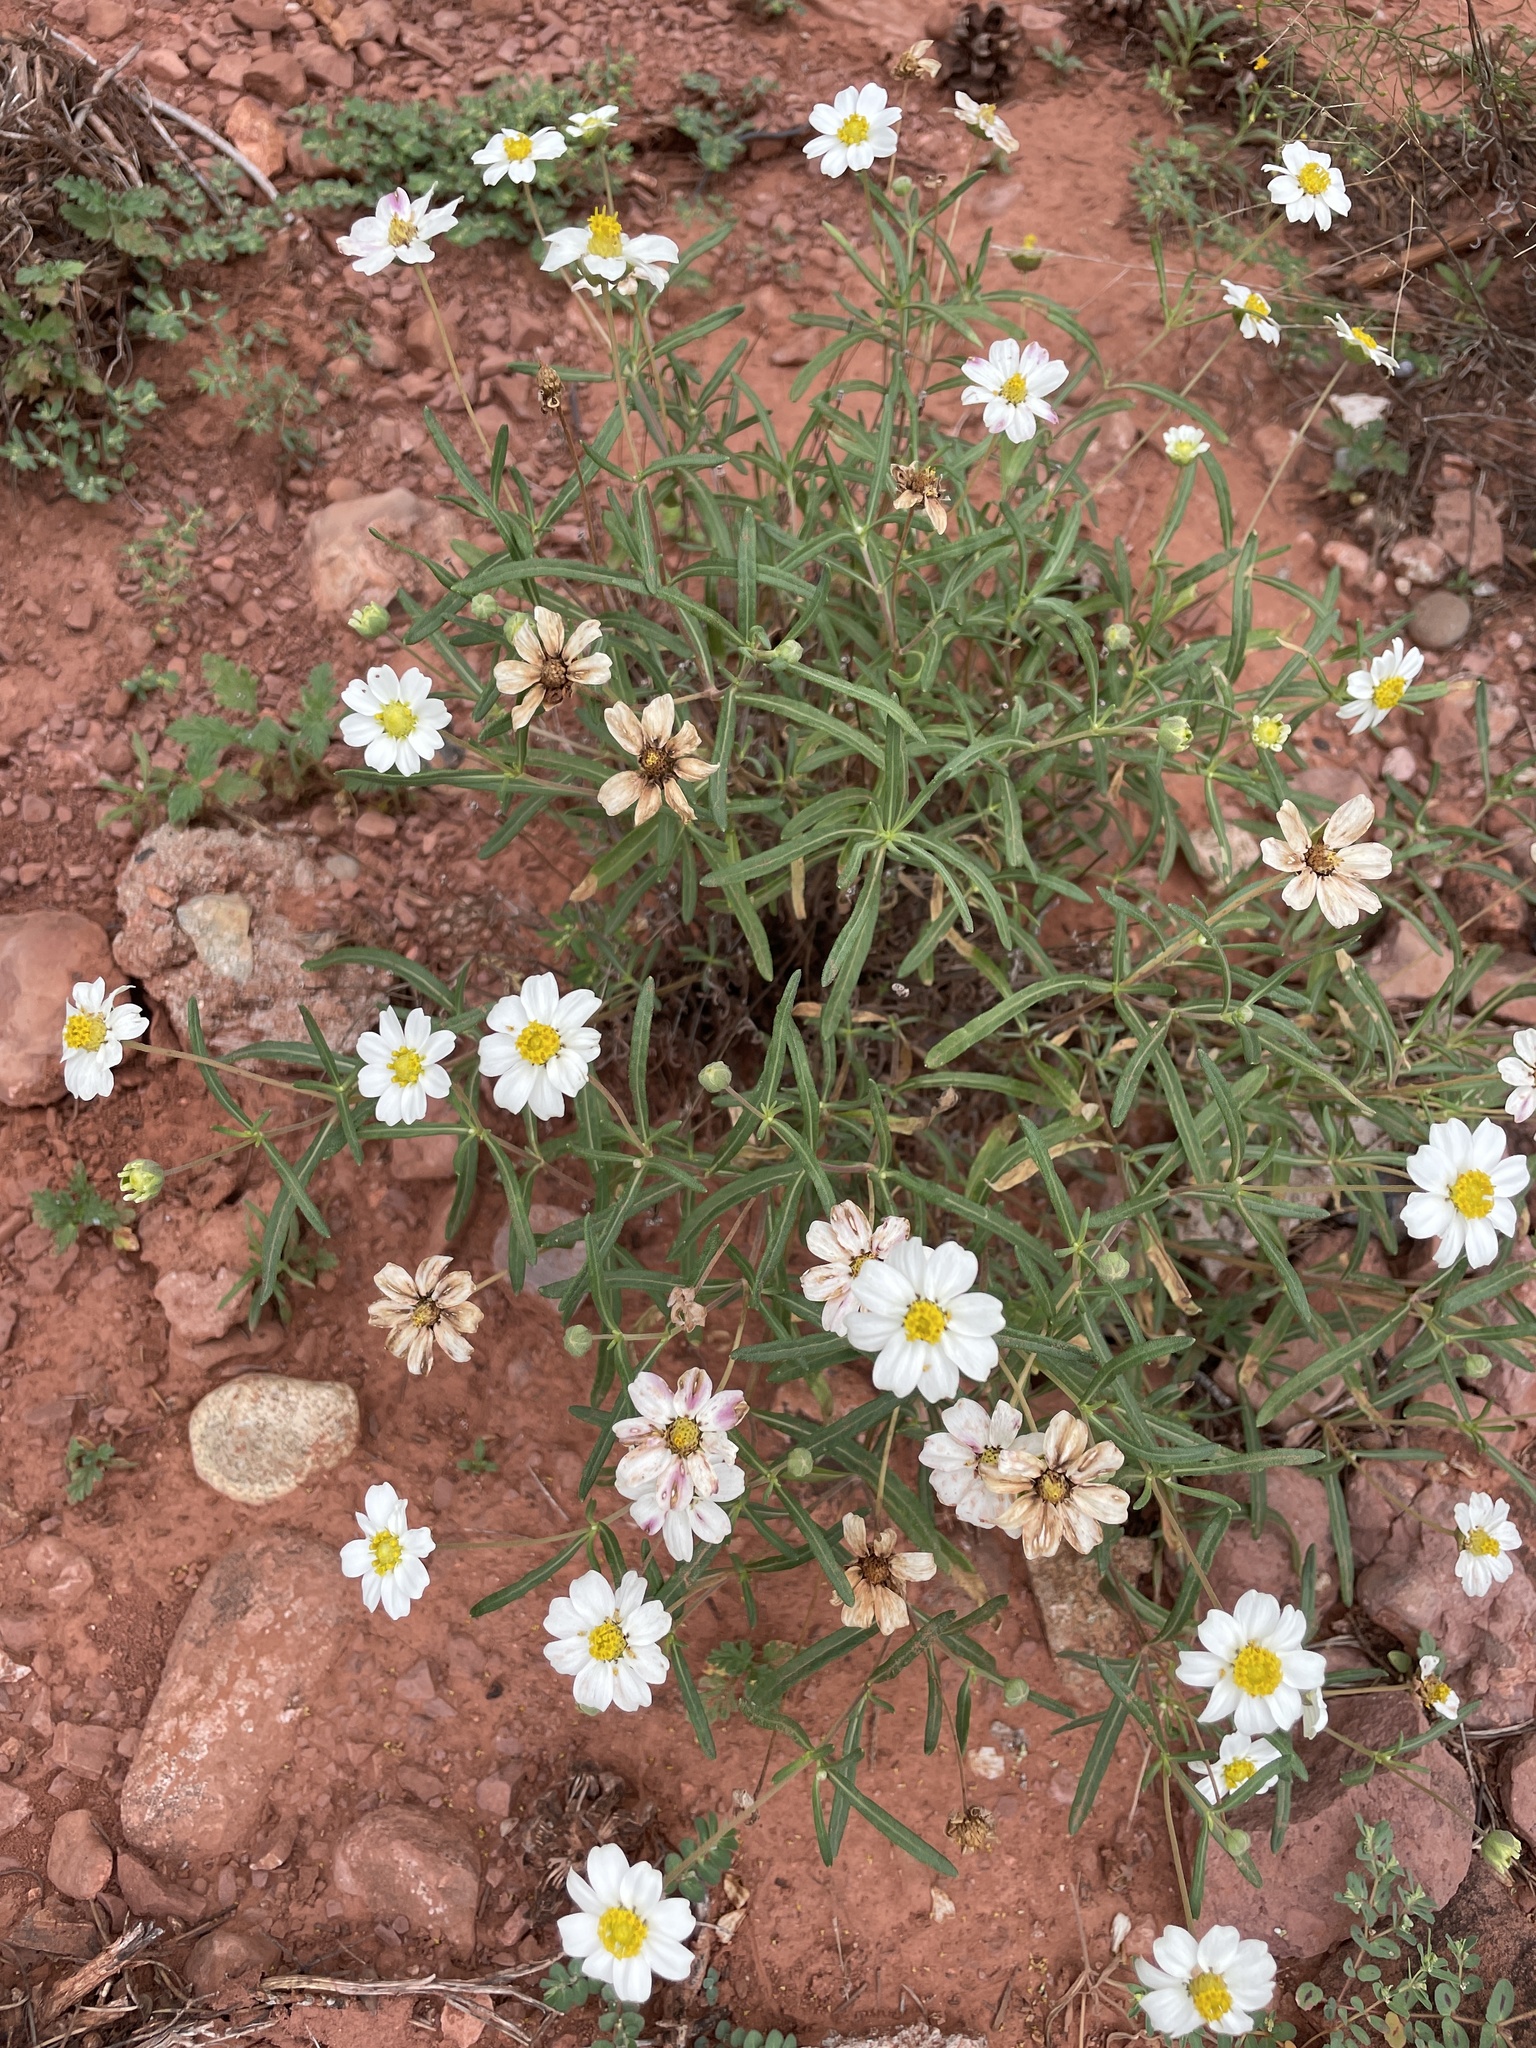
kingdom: Plantae
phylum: Tracheophyta
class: Magnoliopsida
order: Asterales
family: Asteraceae
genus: Melampodium
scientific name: Melampodium leucanthum
